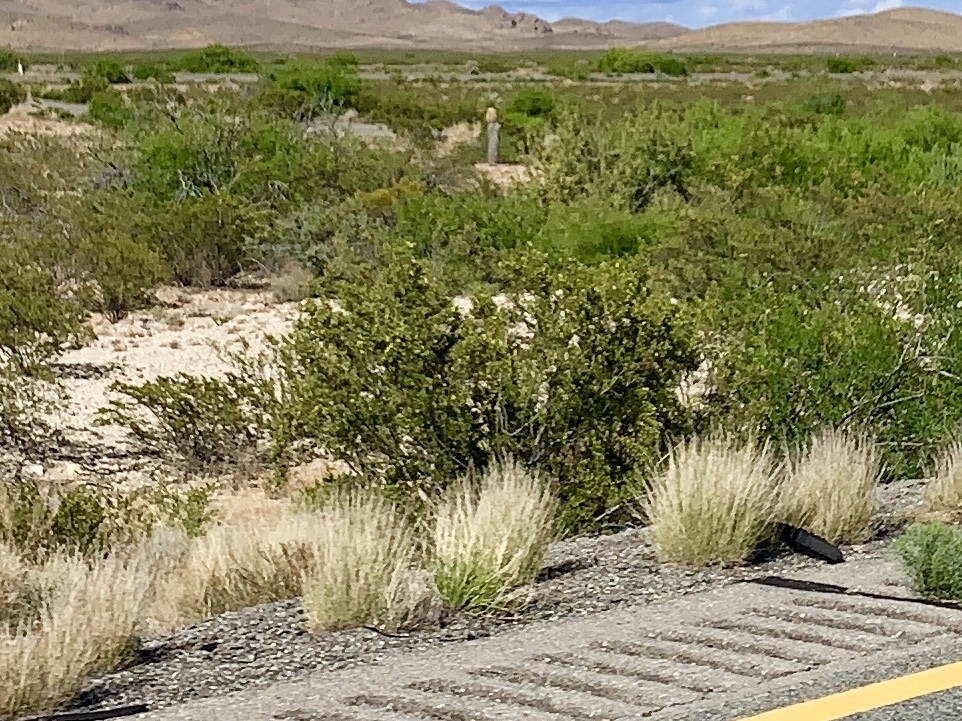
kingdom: Plantae
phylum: Tracheophyta
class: Magnoliopsida
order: Zygophyllales
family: Zygophyllaceae
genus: Larrea
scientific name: Larrea tridentata
